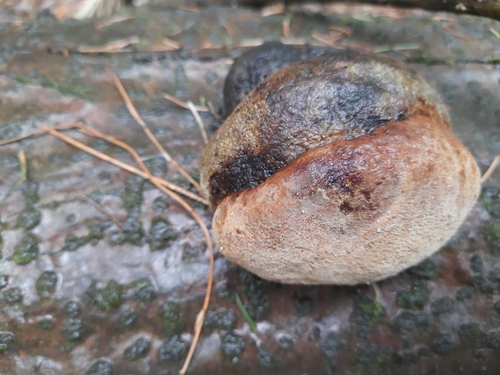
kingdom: Fungi
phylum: Basidiomycota
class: Agaricomycetes
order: Hymenochaetales
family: Hymenochaetaceae
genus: Phellinus
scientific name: Phellinus hartigii
